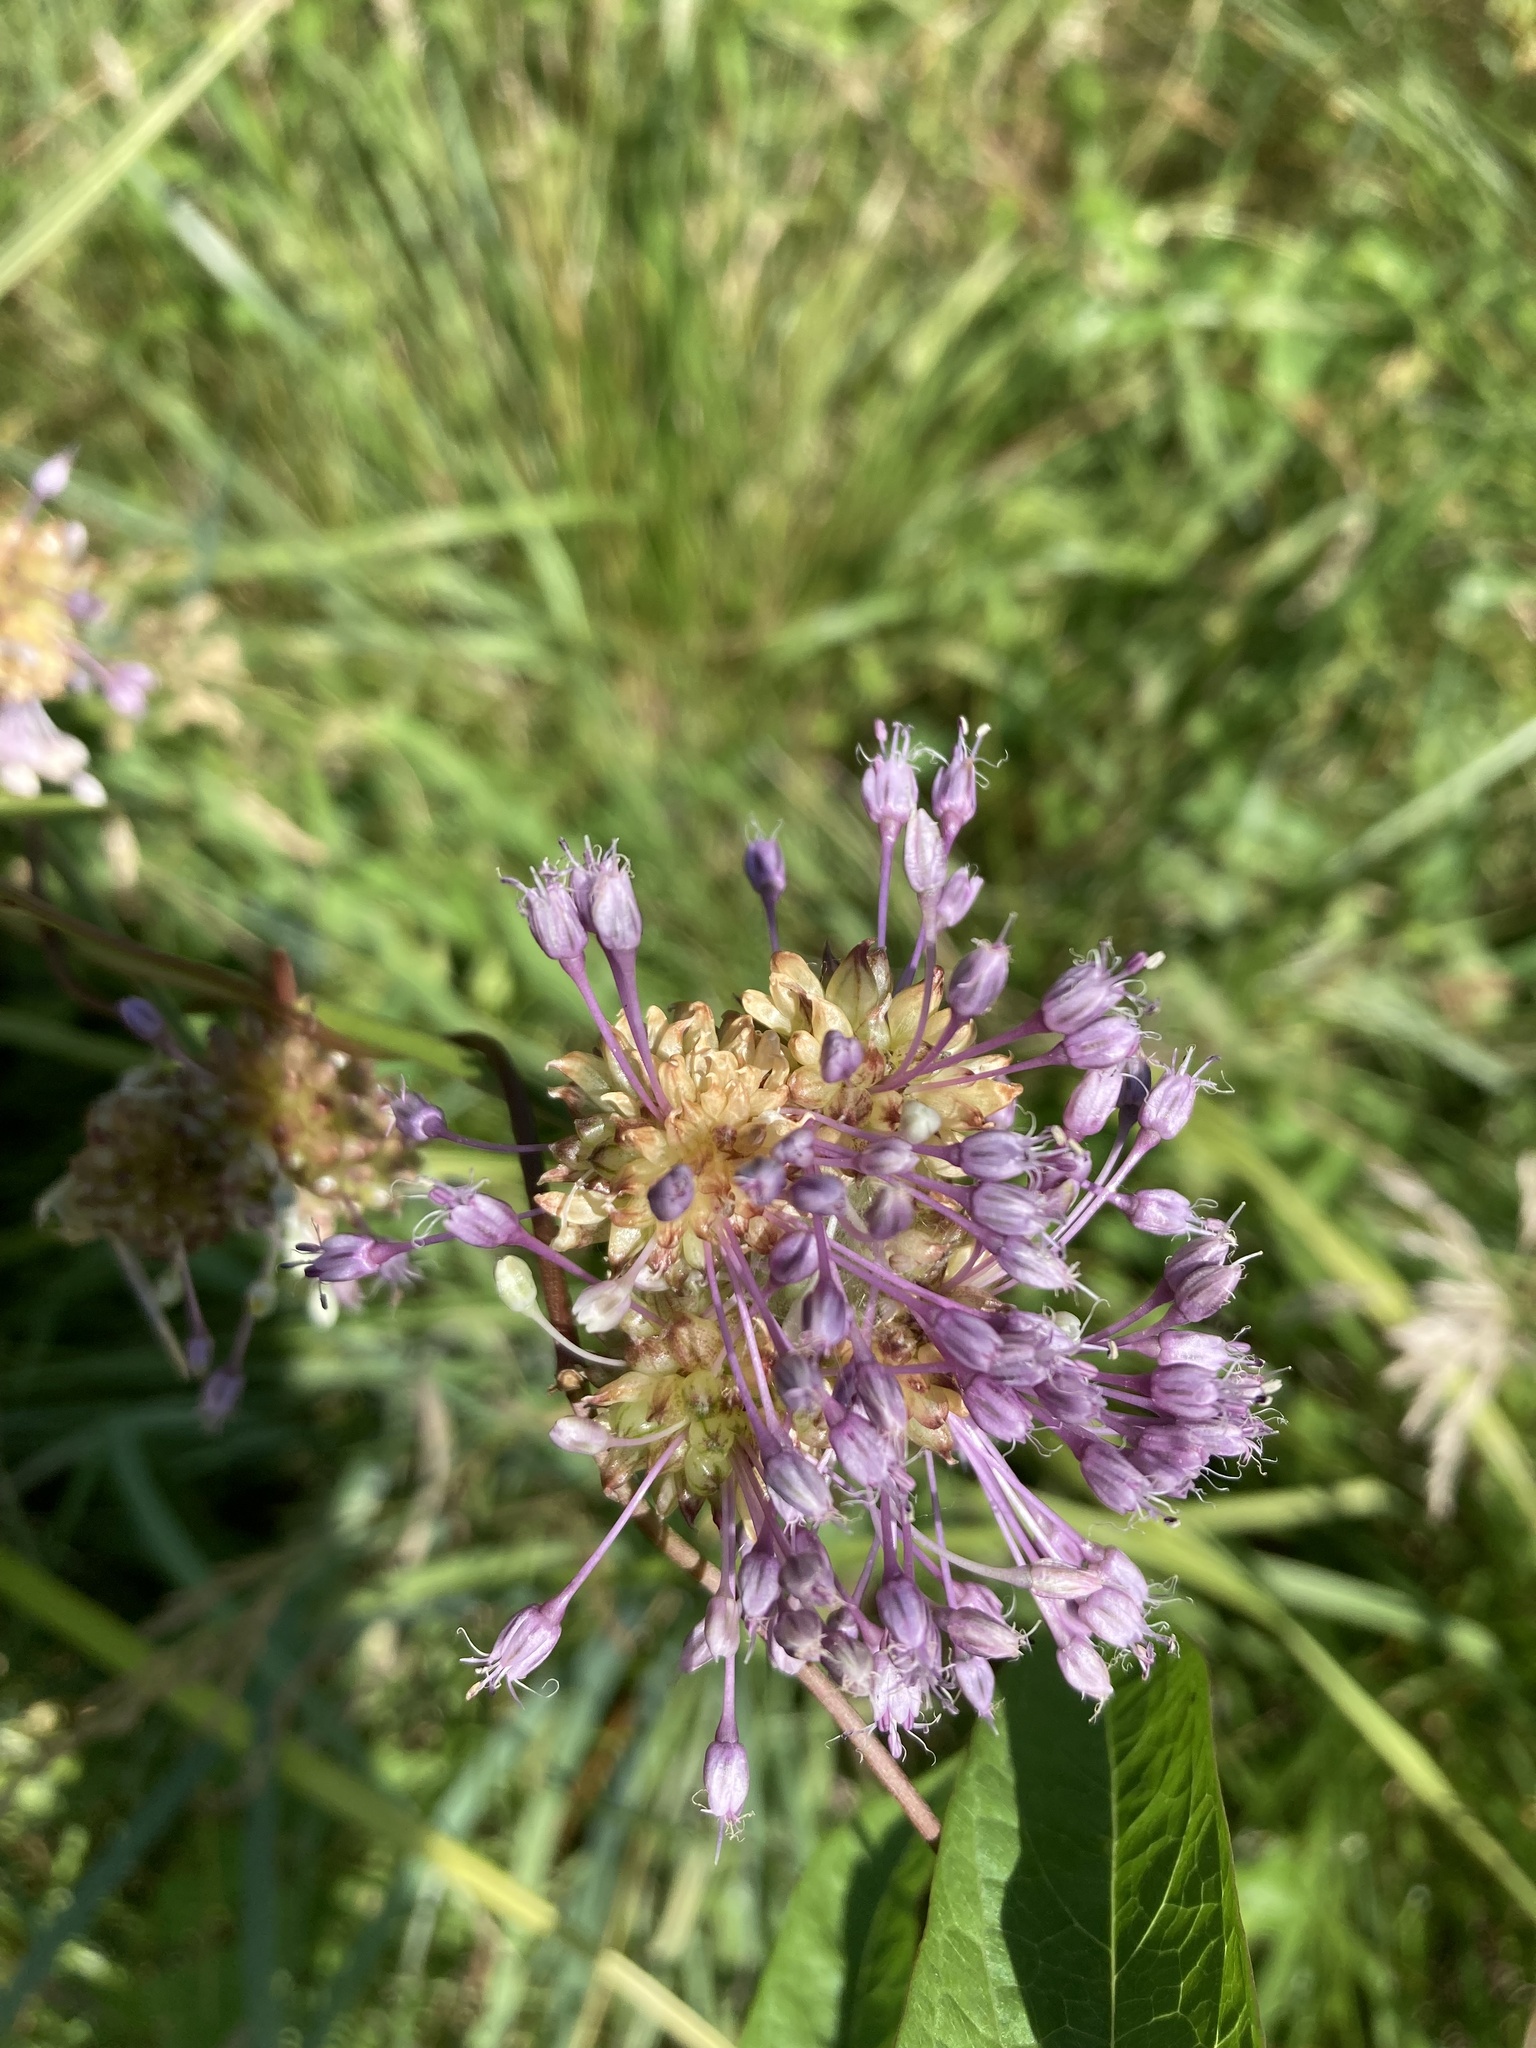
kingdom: Plantae
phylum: Tracheophyta
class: Liliopsida
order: Asparagales
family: Amaryllidaceae
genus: Allium
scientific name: Allium vineale
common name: Crow garlic
